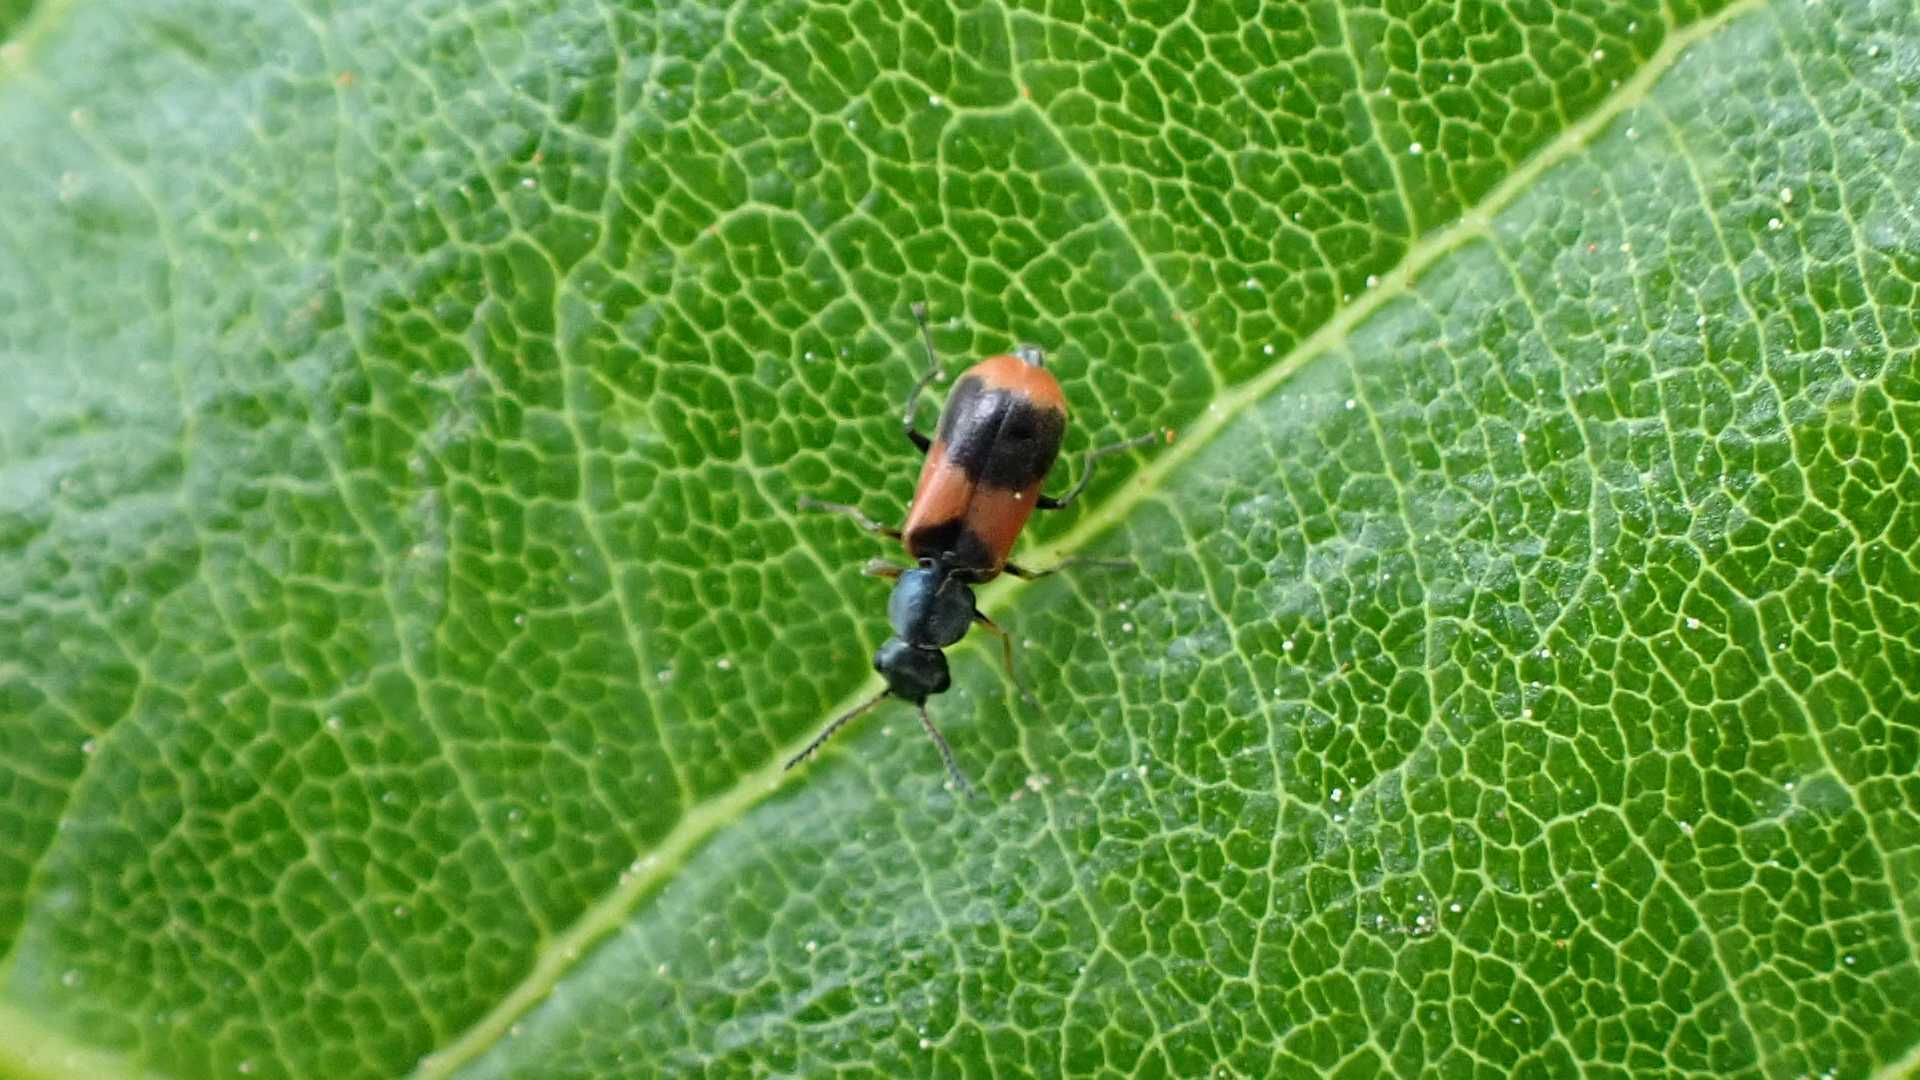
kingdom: Animalia
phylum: Arthropoda
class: Insecta
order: Coleoptera
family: Melyridae
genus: Anthocomus
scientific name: Anthocomus equestris
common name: Black-banded soft-winged flower beetle
